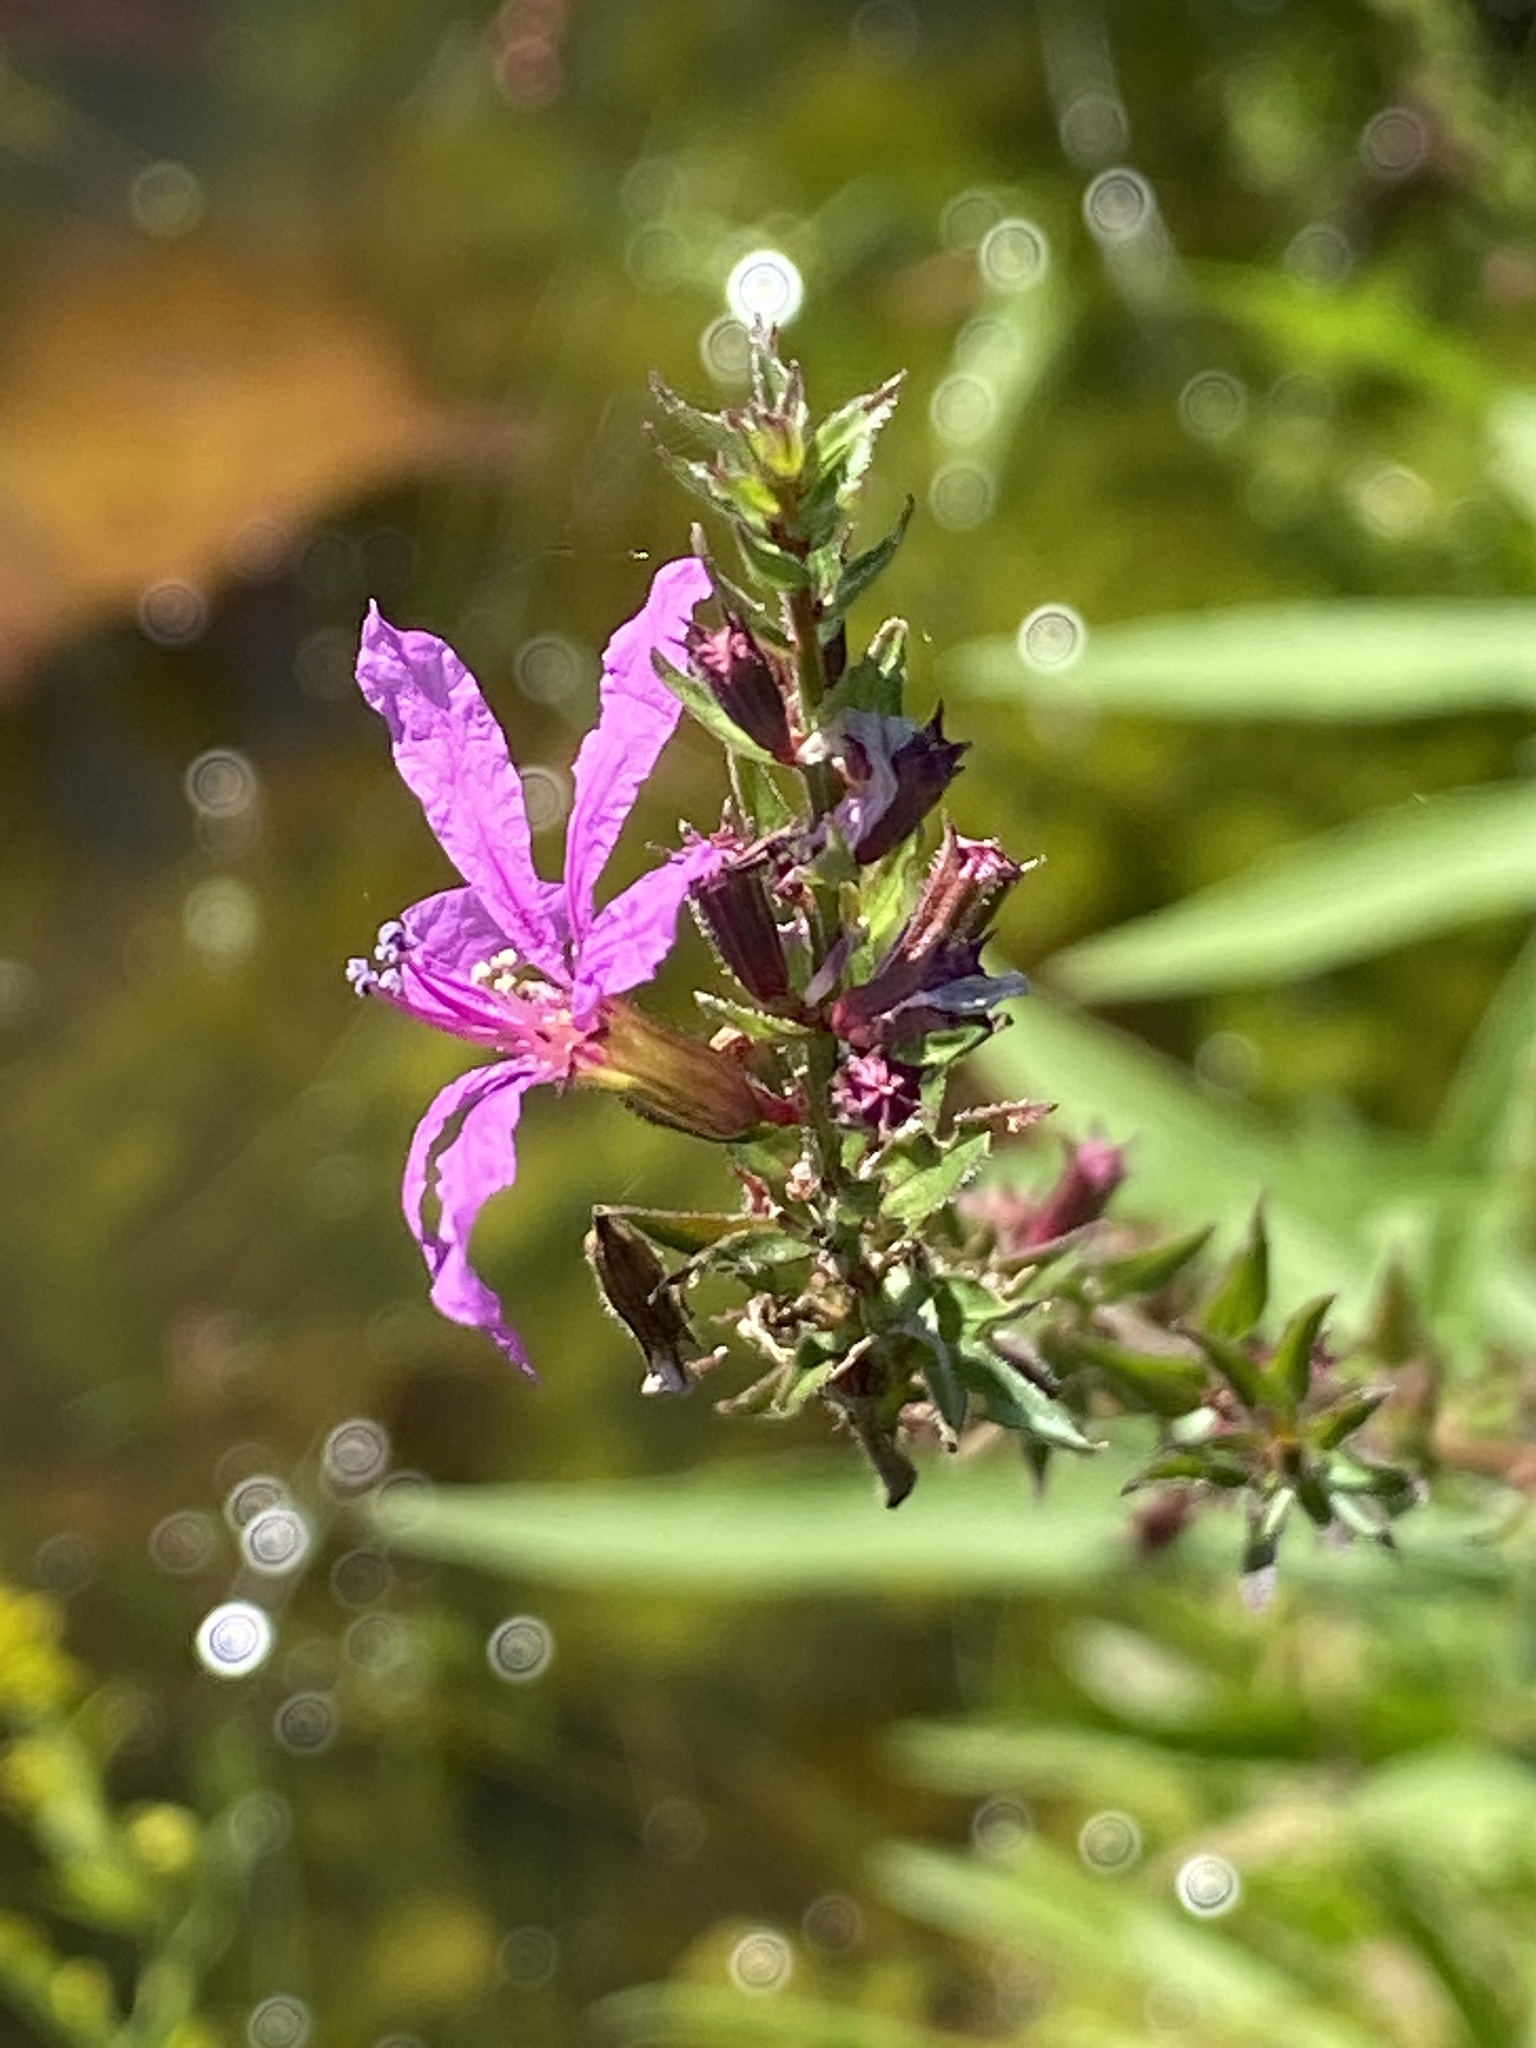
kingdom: Plantae
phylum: Tracheophyta
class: Magnoliopsida
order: Myrtales
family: Lythraceae
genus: Lythrum
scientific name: Lythrum salicaria
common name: Purple loosestrife
